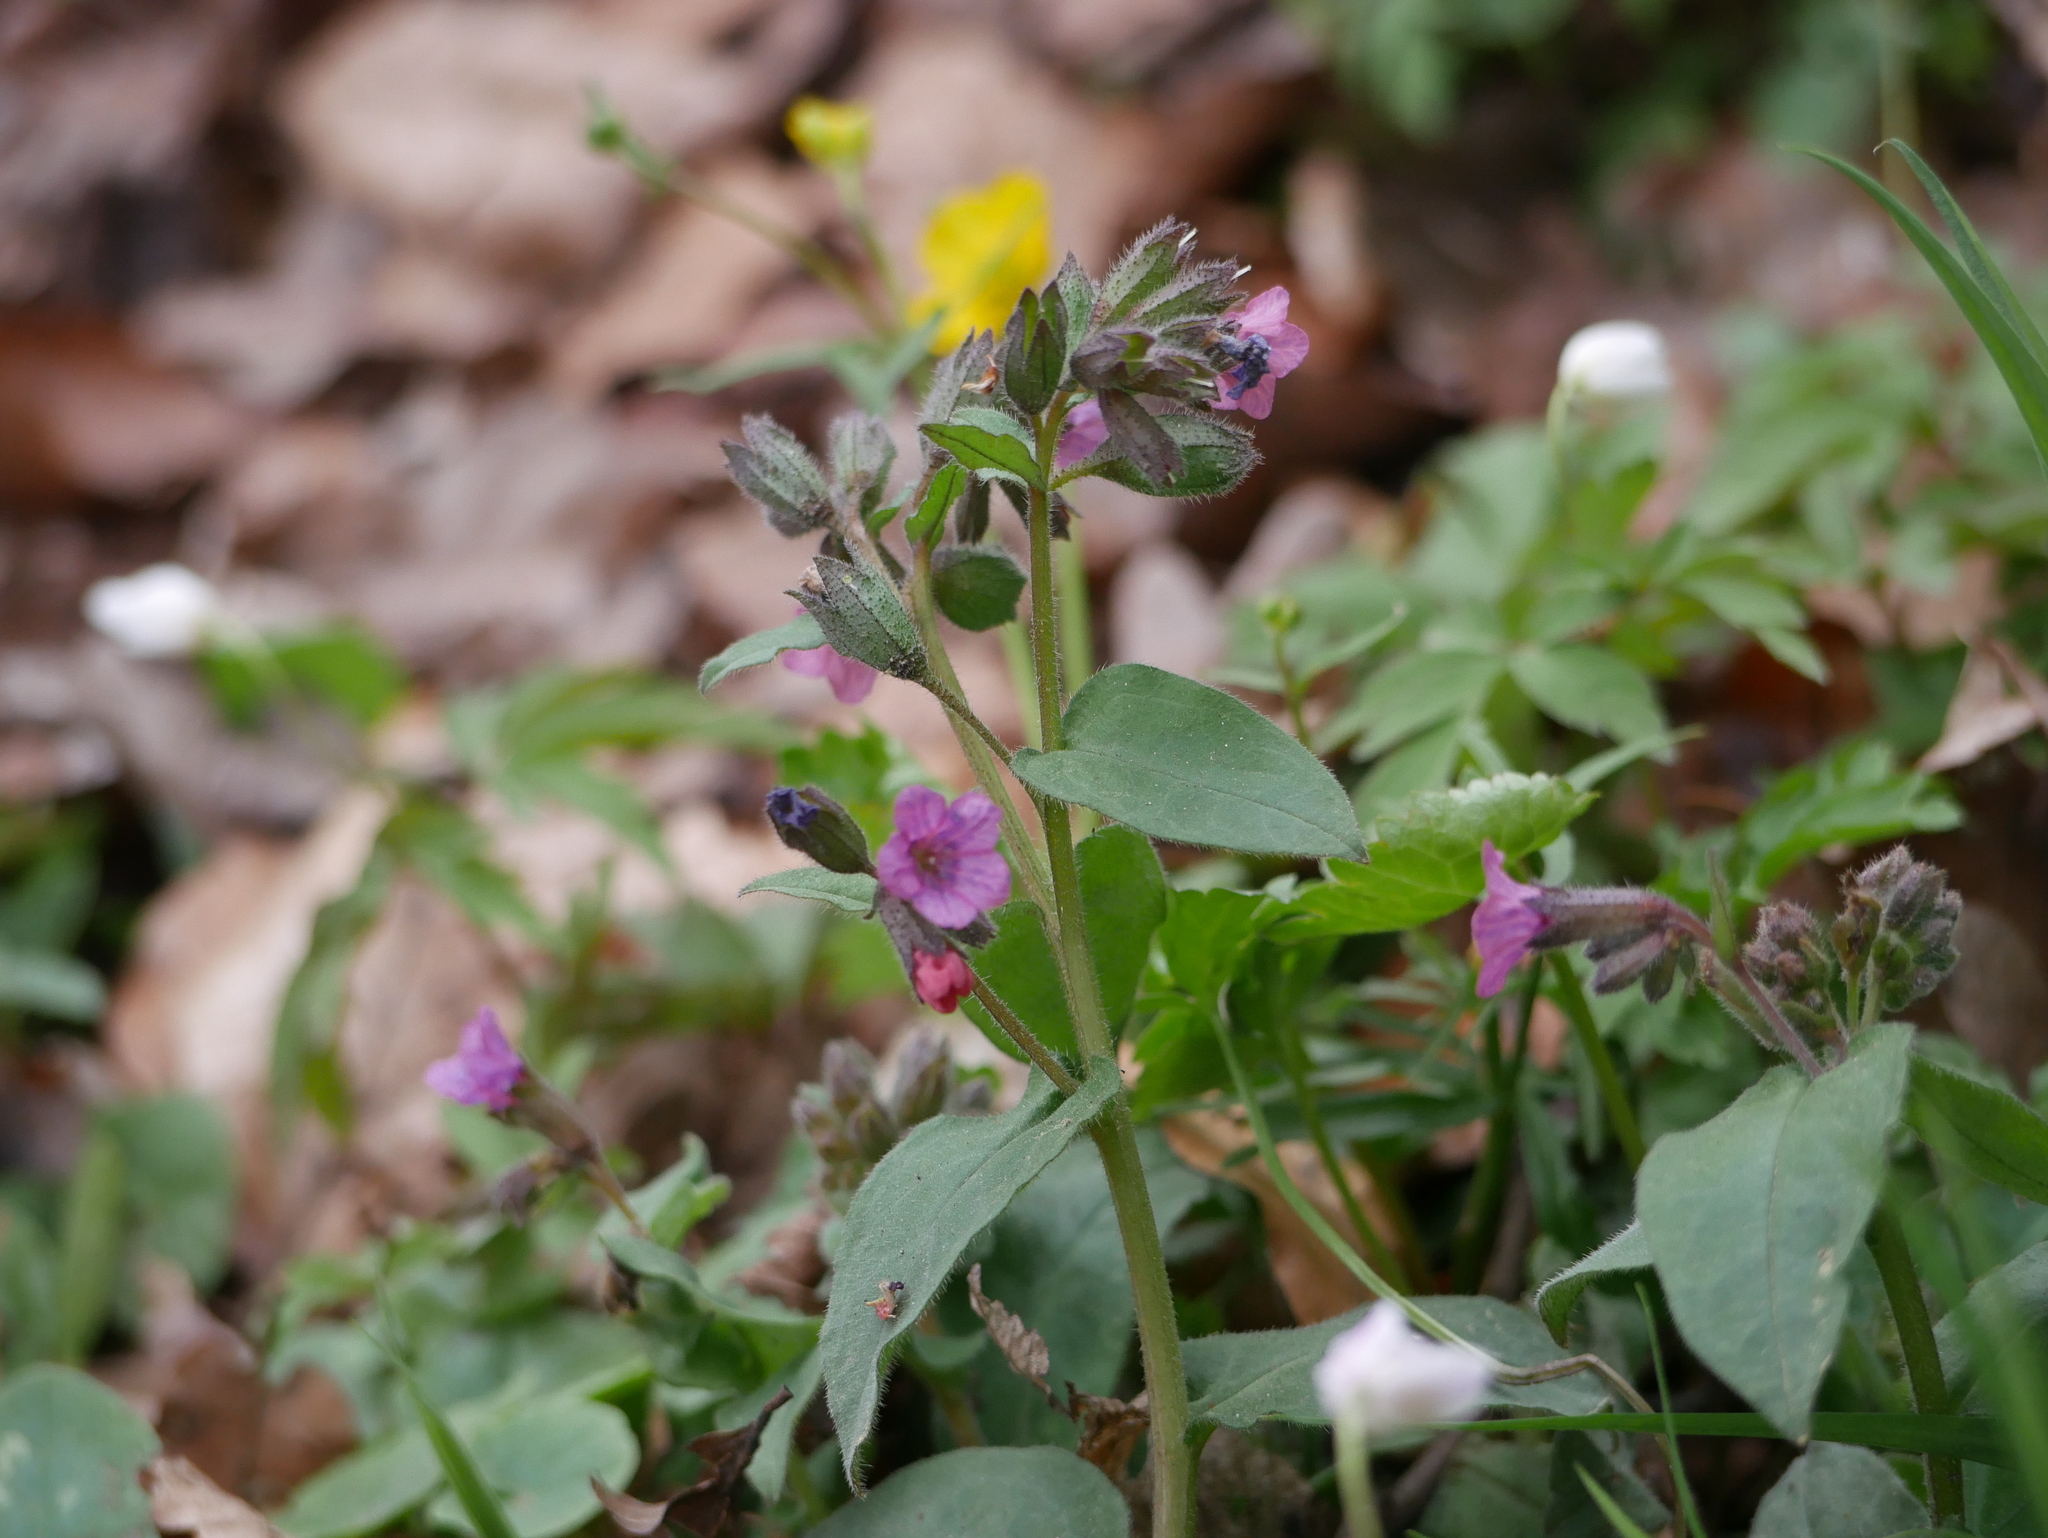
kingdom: Plantae
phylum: Tracheophyta
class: Magnoliopsida
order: Boraginales
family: Boraginaceae
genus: Pulmonaria
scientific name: Pulmonaria obscura
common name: Suffolk lungwort
